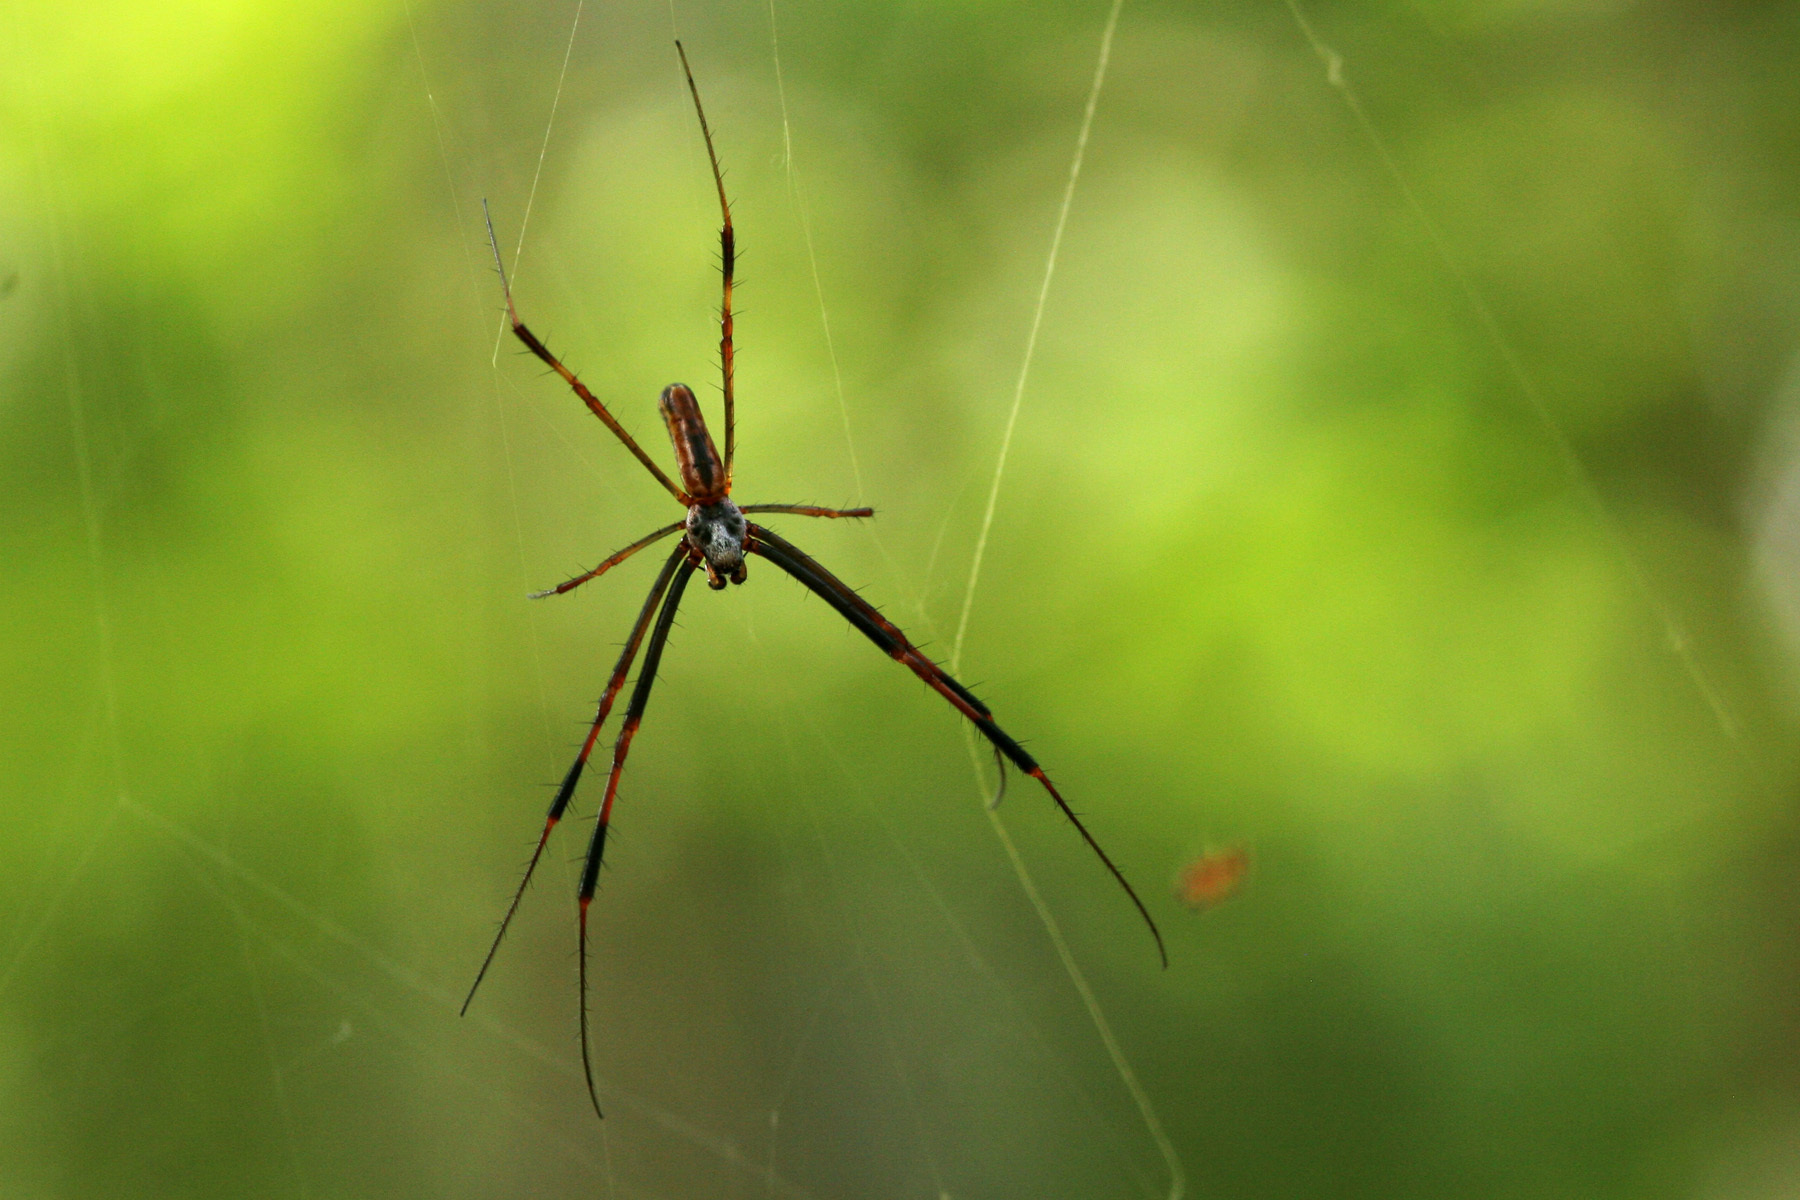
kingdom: Animalia
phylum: Arthropoda
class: Arachnida
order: Araneae
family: Araneidae
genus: Trichonephila
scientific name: Trichonephila clavipes
